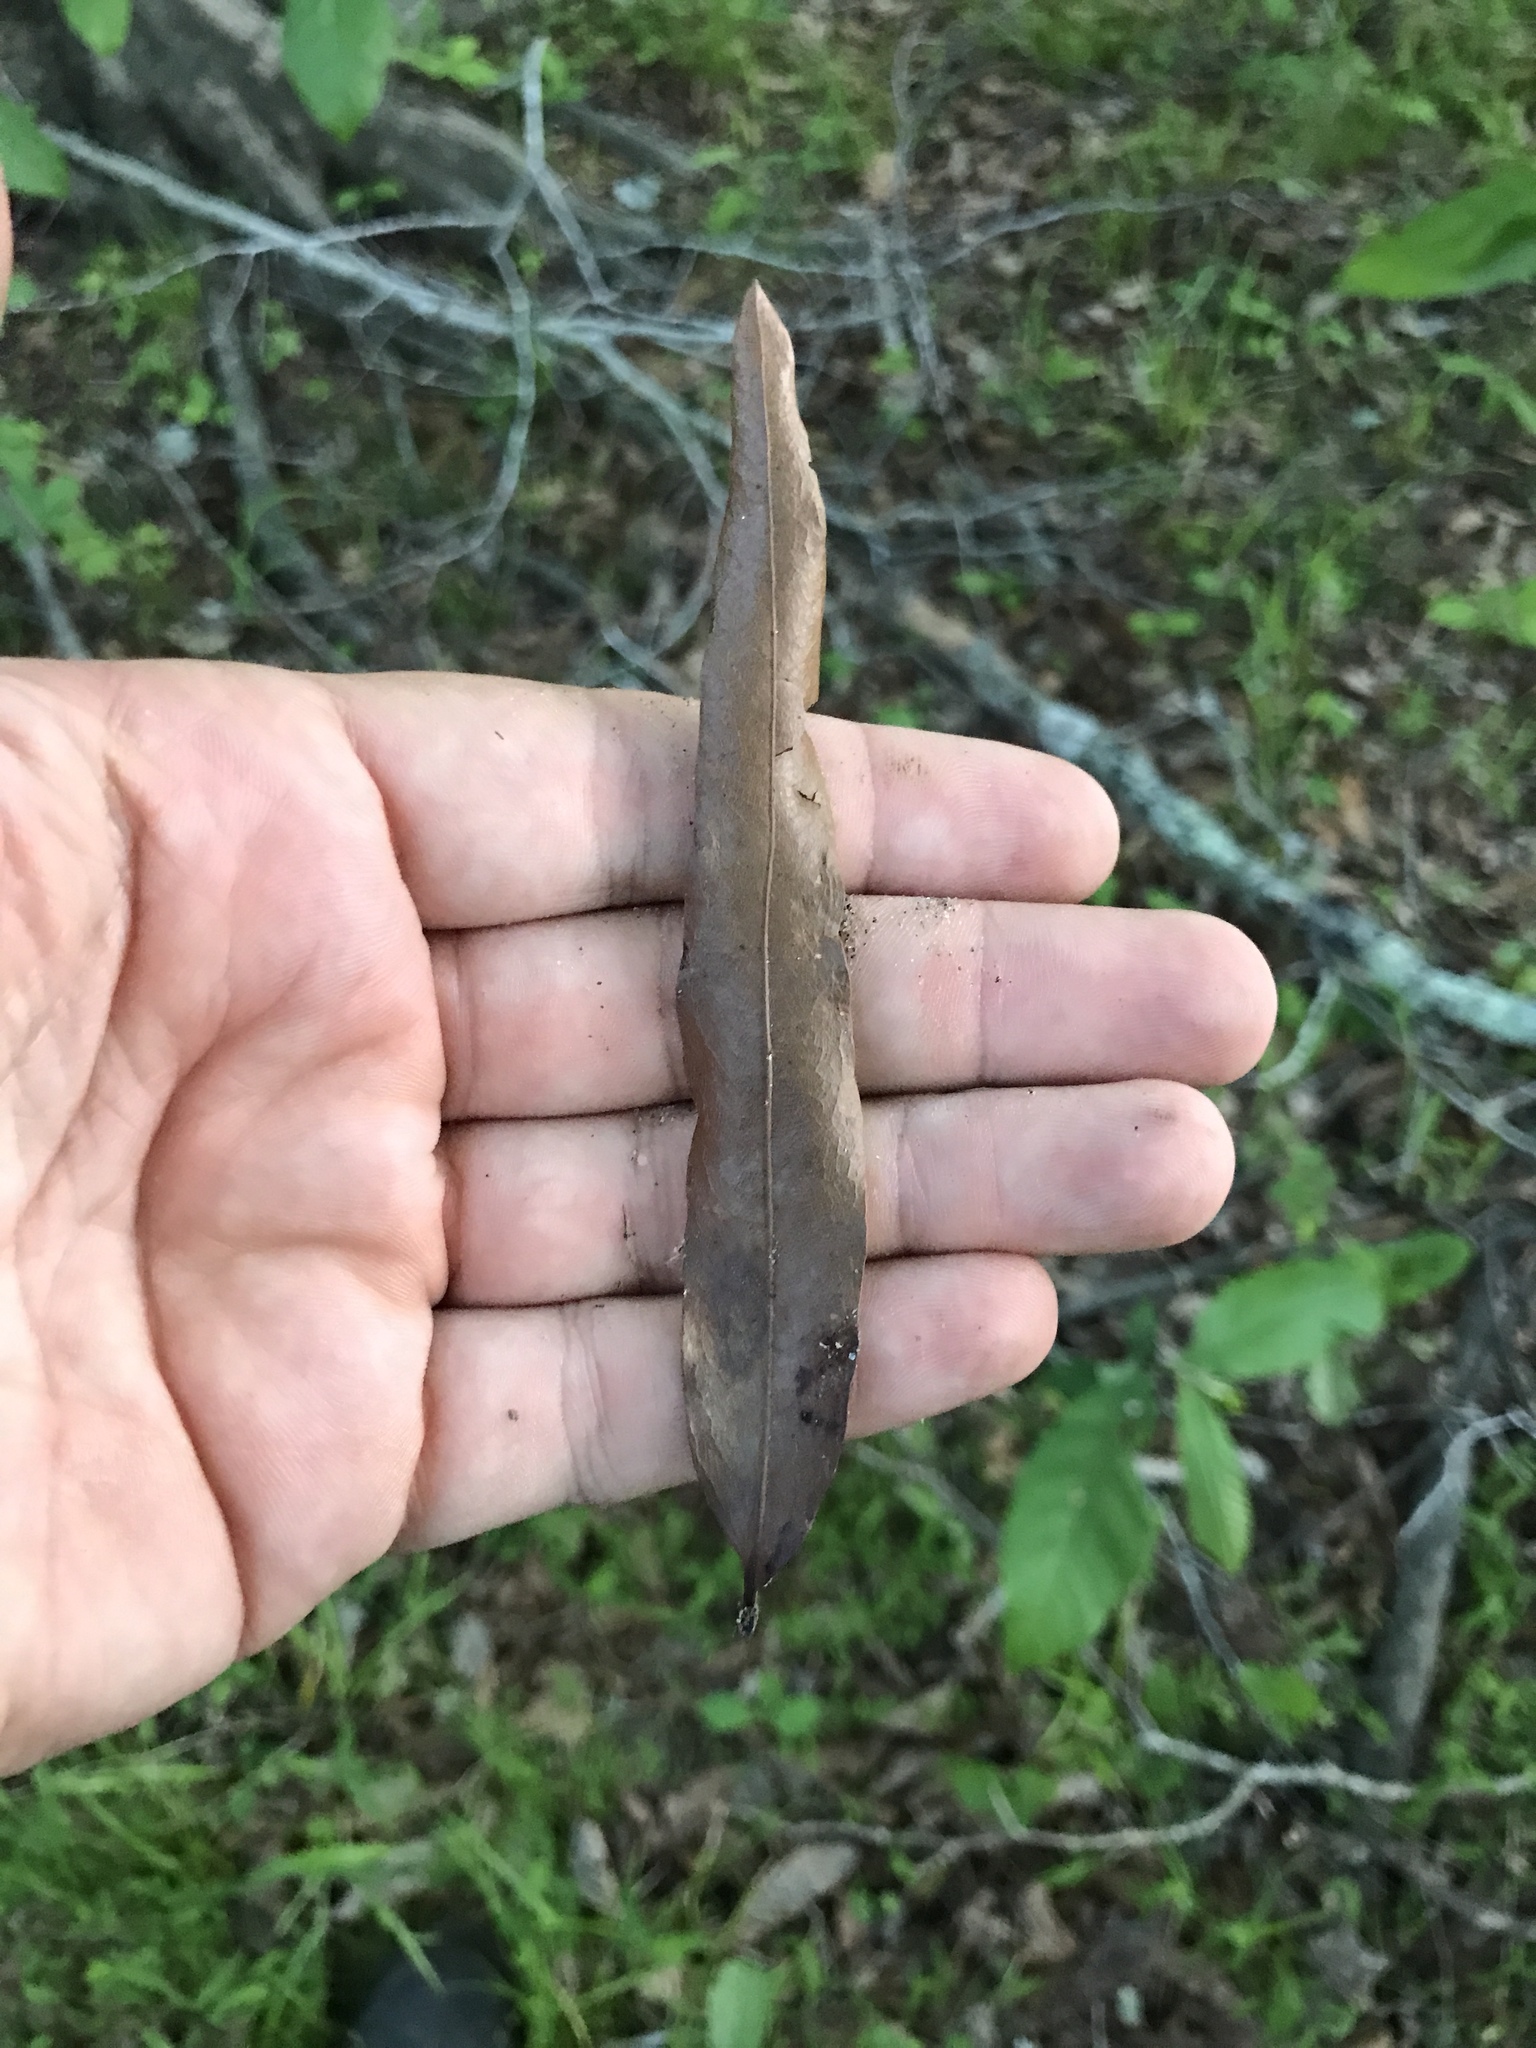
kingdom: Plantae
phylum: Tracheophyta
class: Magnoliopsida
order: Fagales
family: Fagaceae
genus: Quercus
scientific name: Quercus phellos
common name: Willow oak
